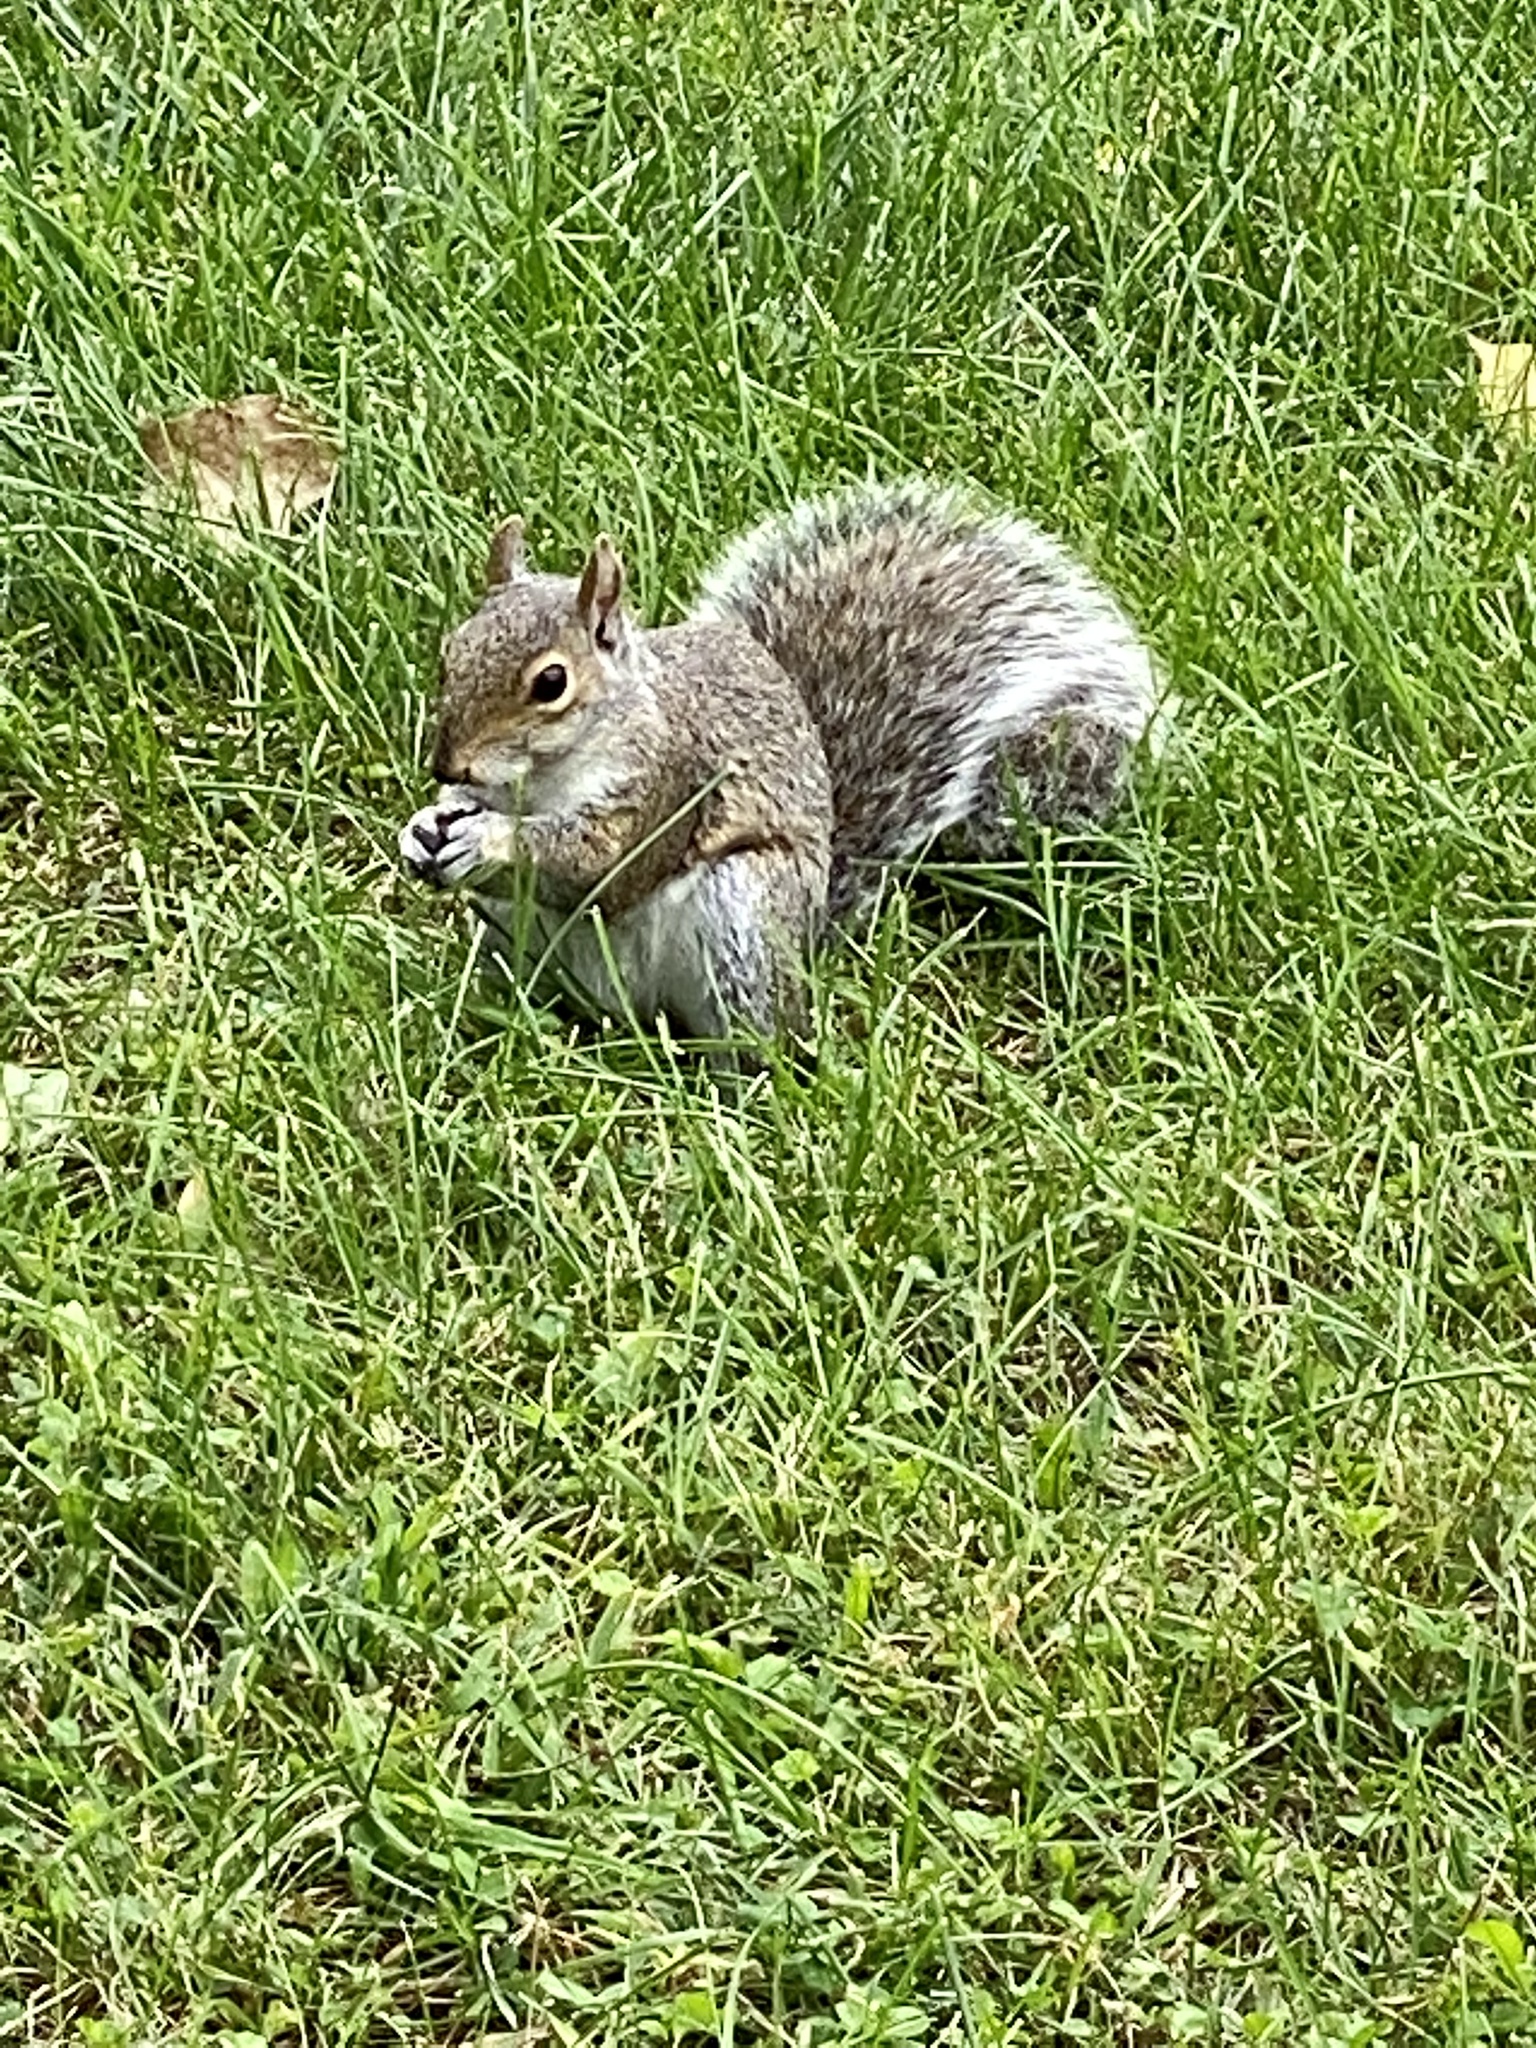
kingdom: Animalia
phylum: Chordata
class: Mammalia
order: Rodentia
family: Sciuridae
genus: Sciurus
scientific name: Sciurus carolinensis
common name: Eastern gray squirrel
